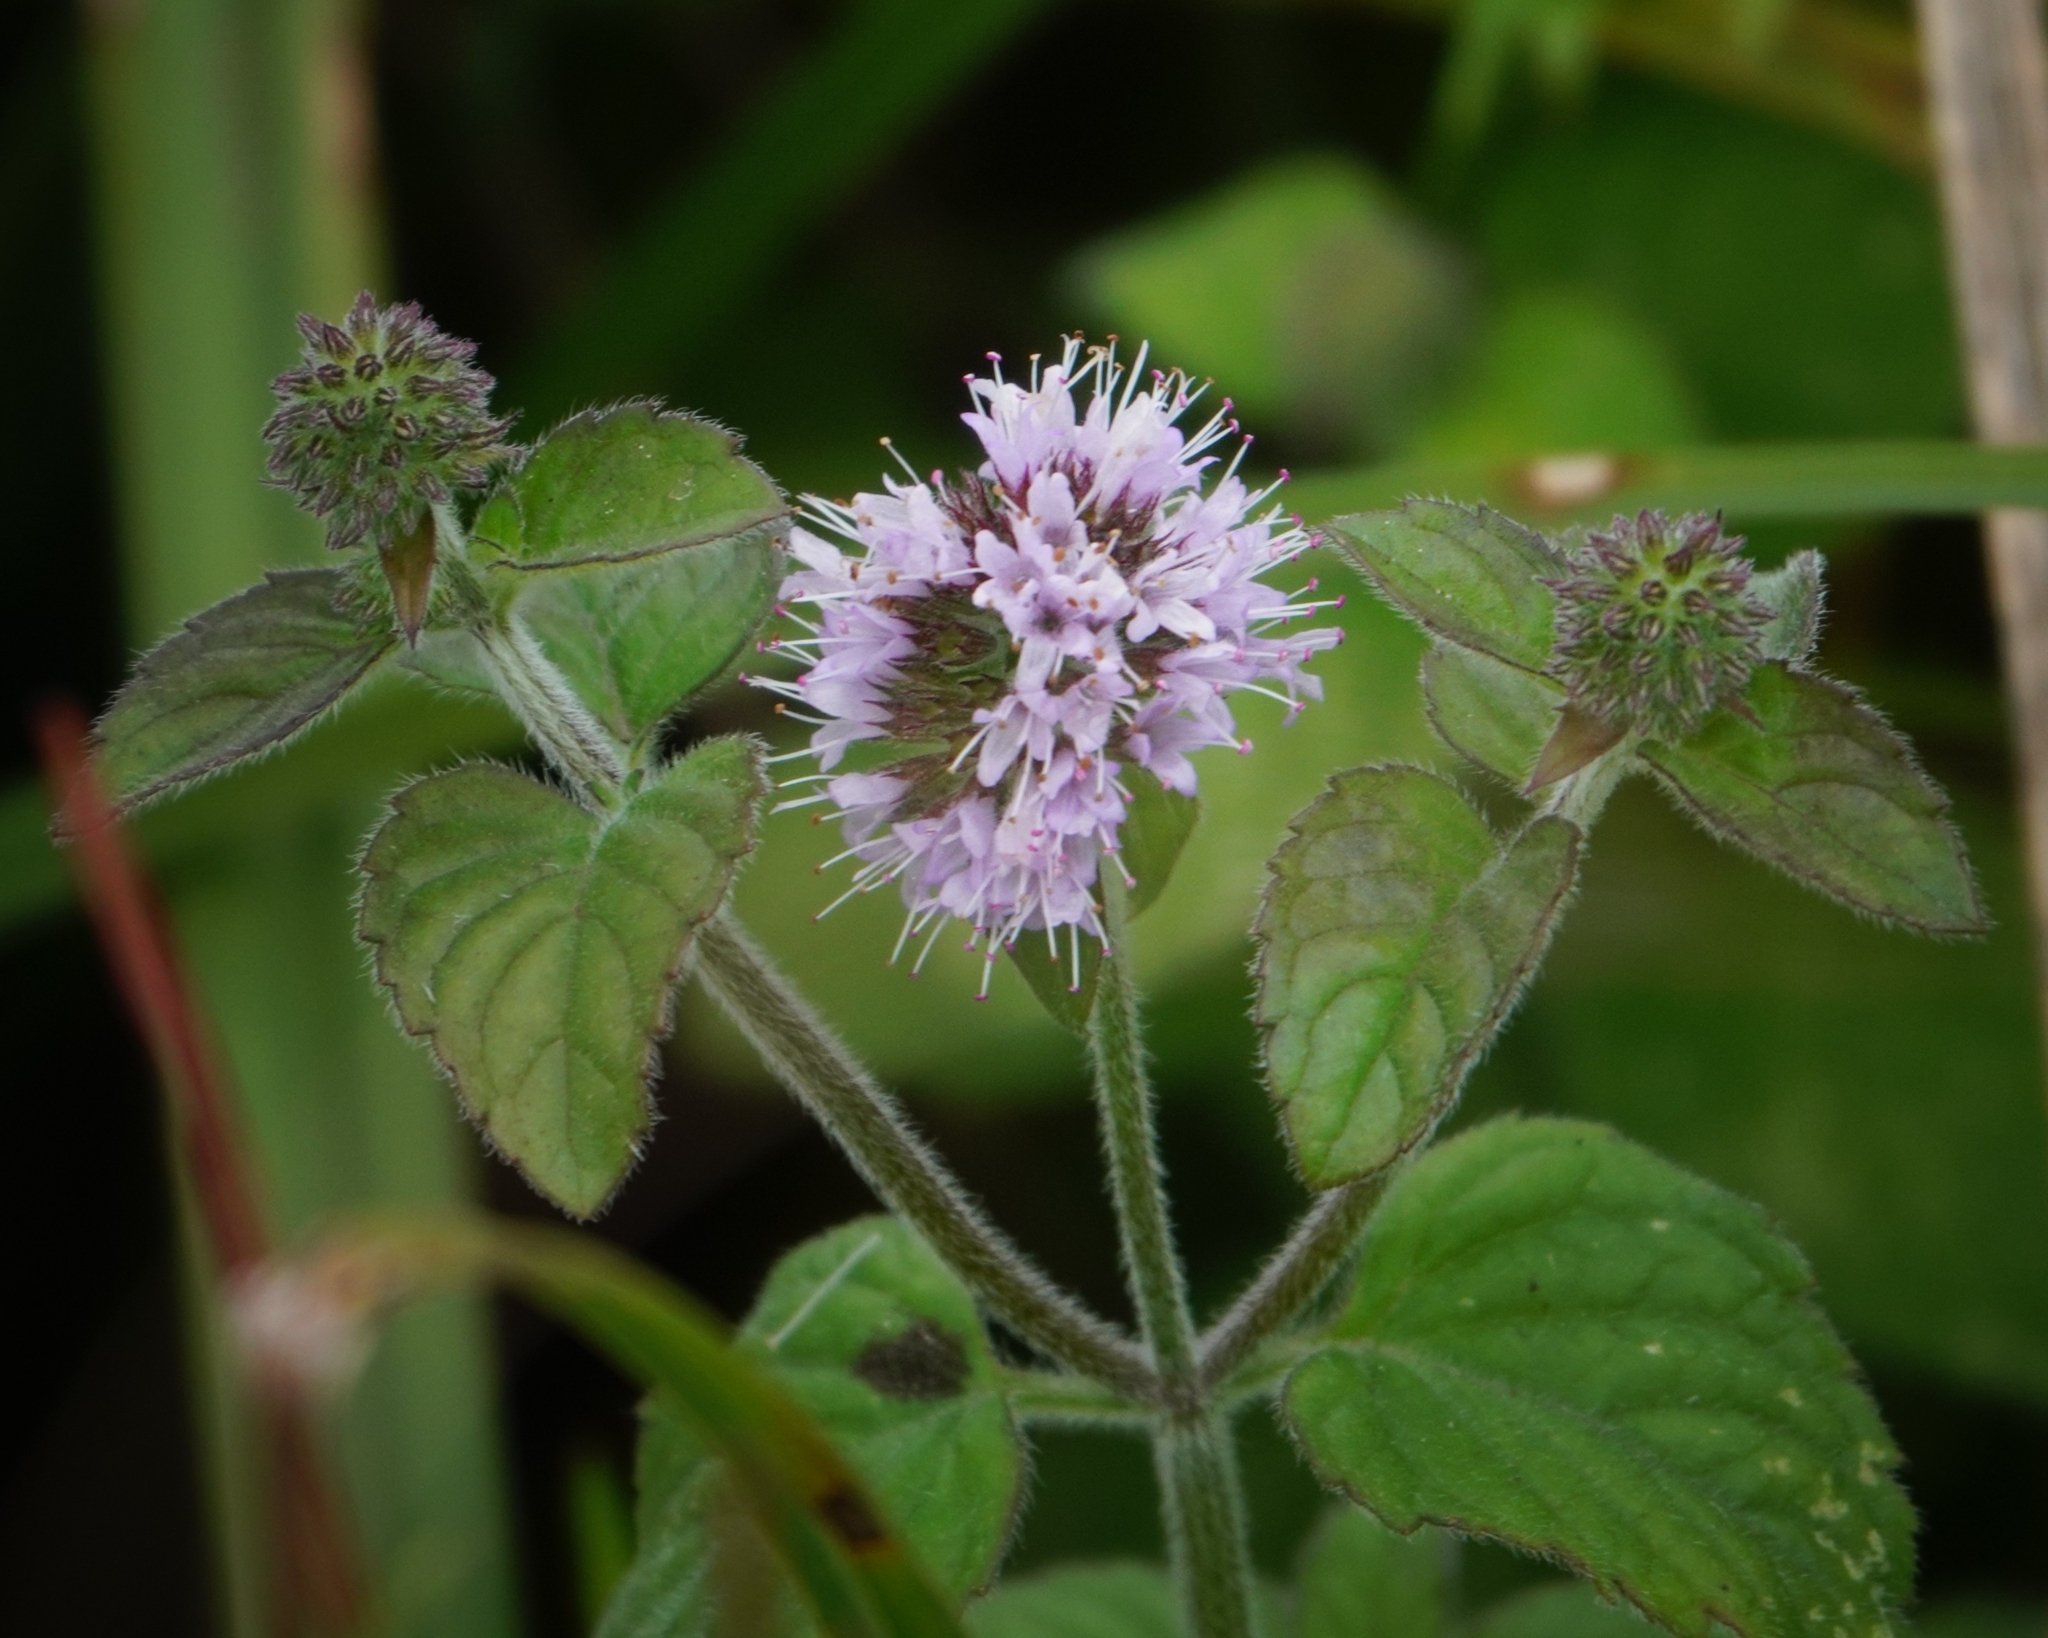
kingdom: Plantae
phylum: Tracheophyta
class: Magnoliopsida
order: Lamiales
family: Lamiaceae
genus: Mentha
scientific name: Mentha aquatica
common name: Water mint
